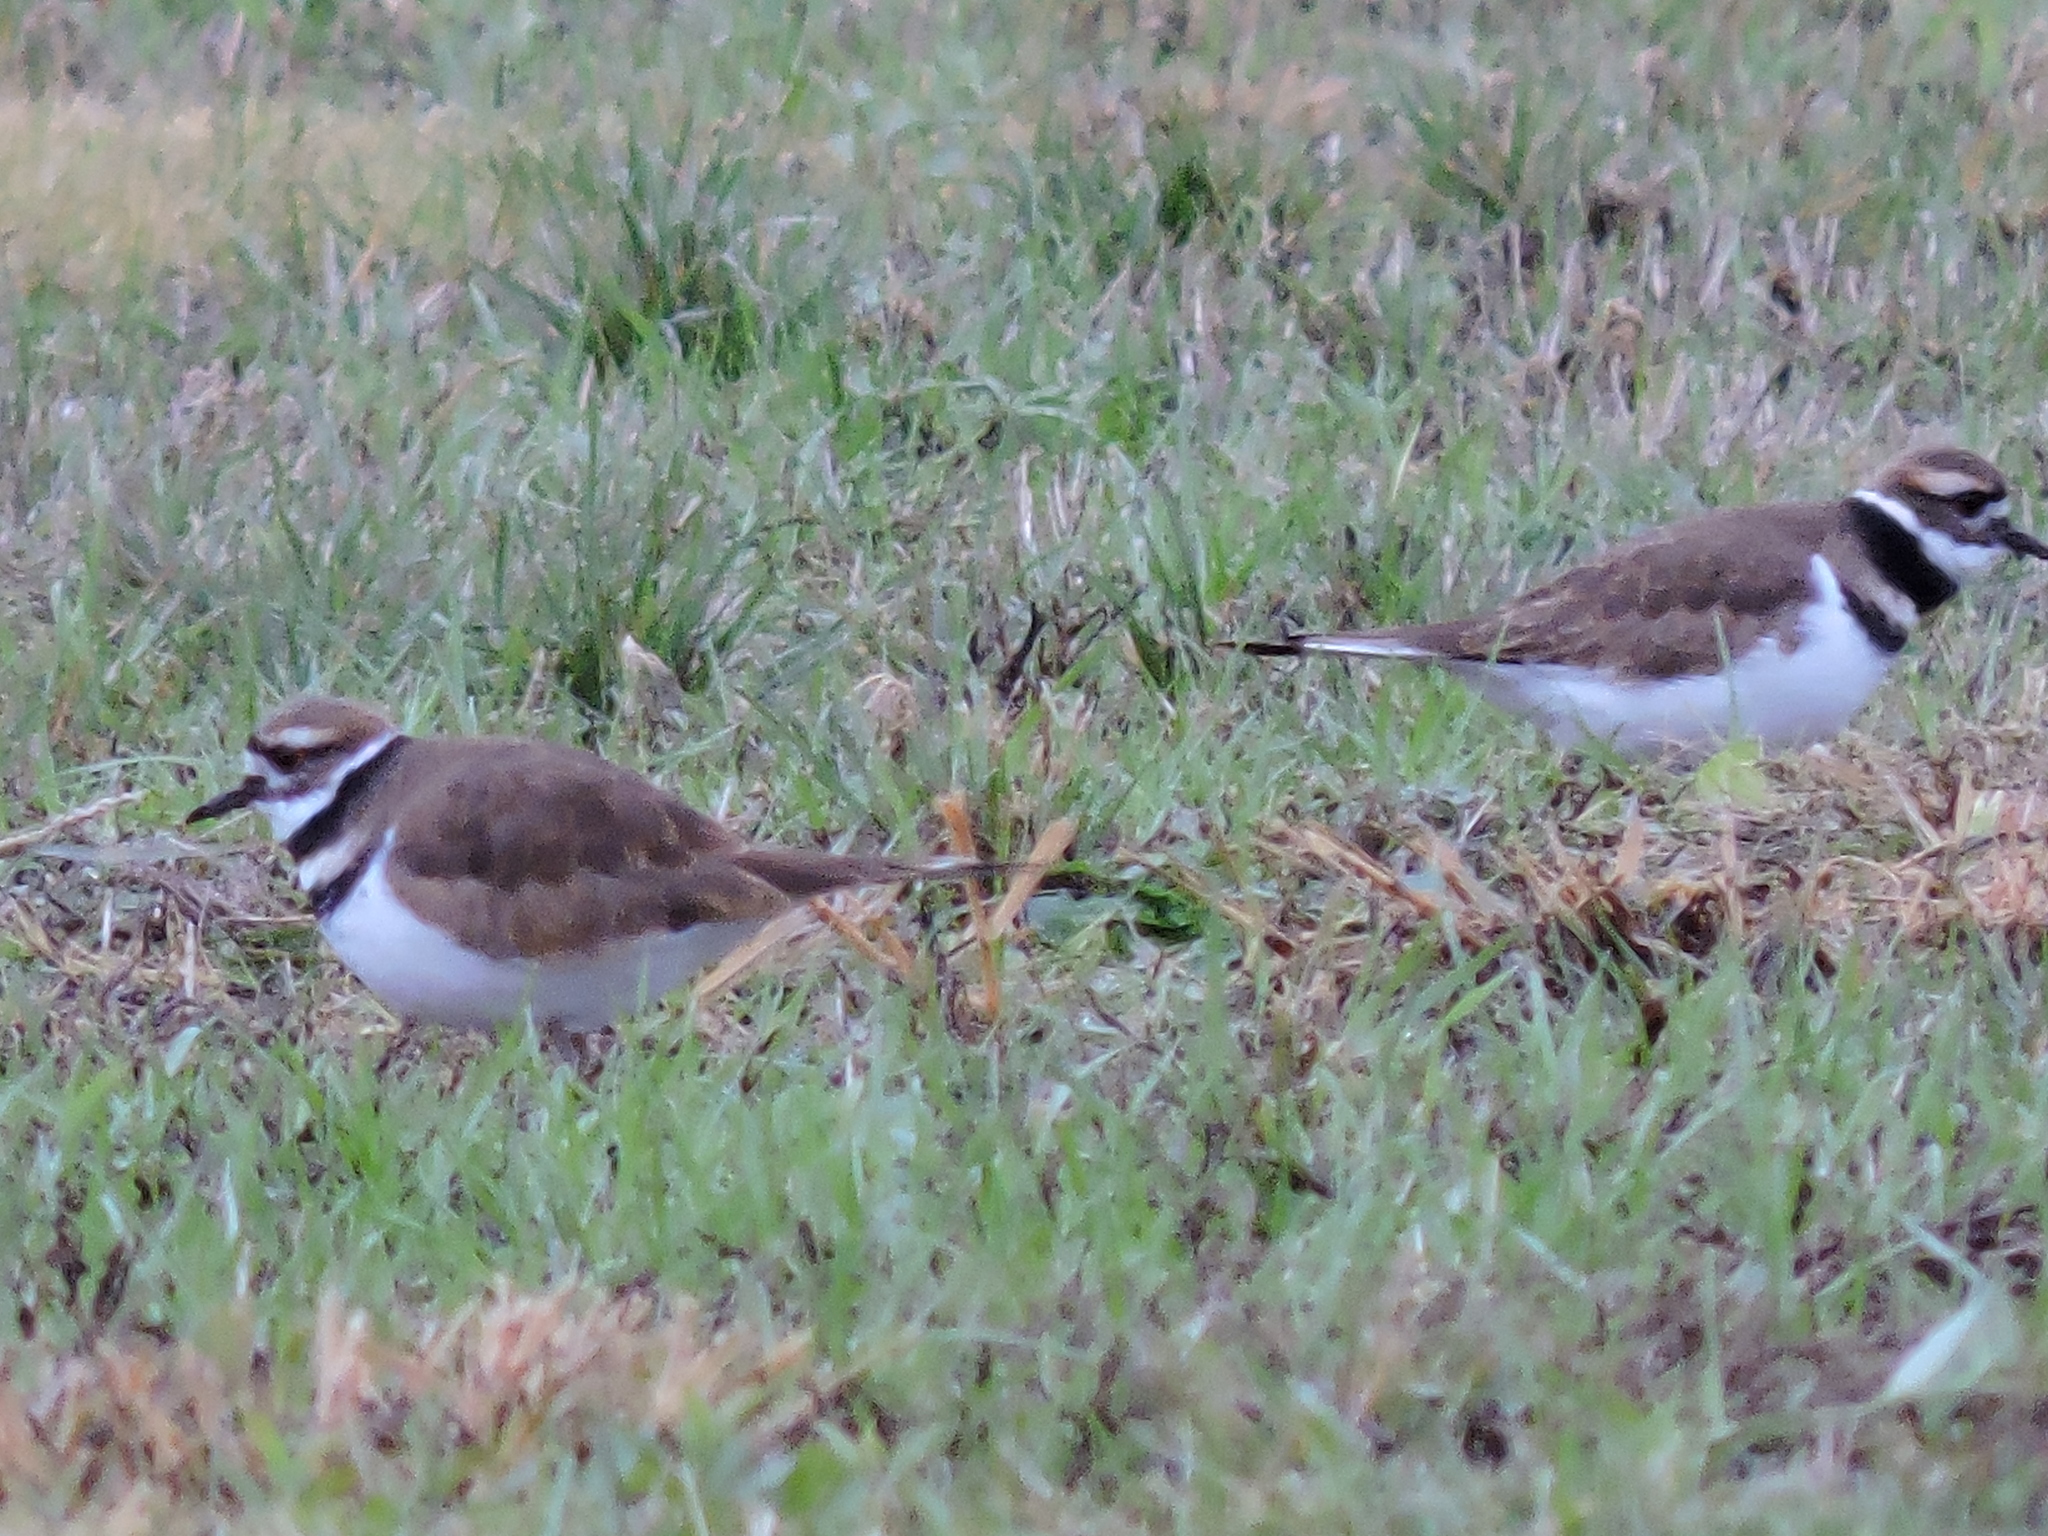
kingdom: Animalia
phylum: Chordata
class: Aves
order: Charadriiformes
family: Charadriidae
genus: Charadrius
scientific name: Charadrius vociferus
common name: Killdeer
